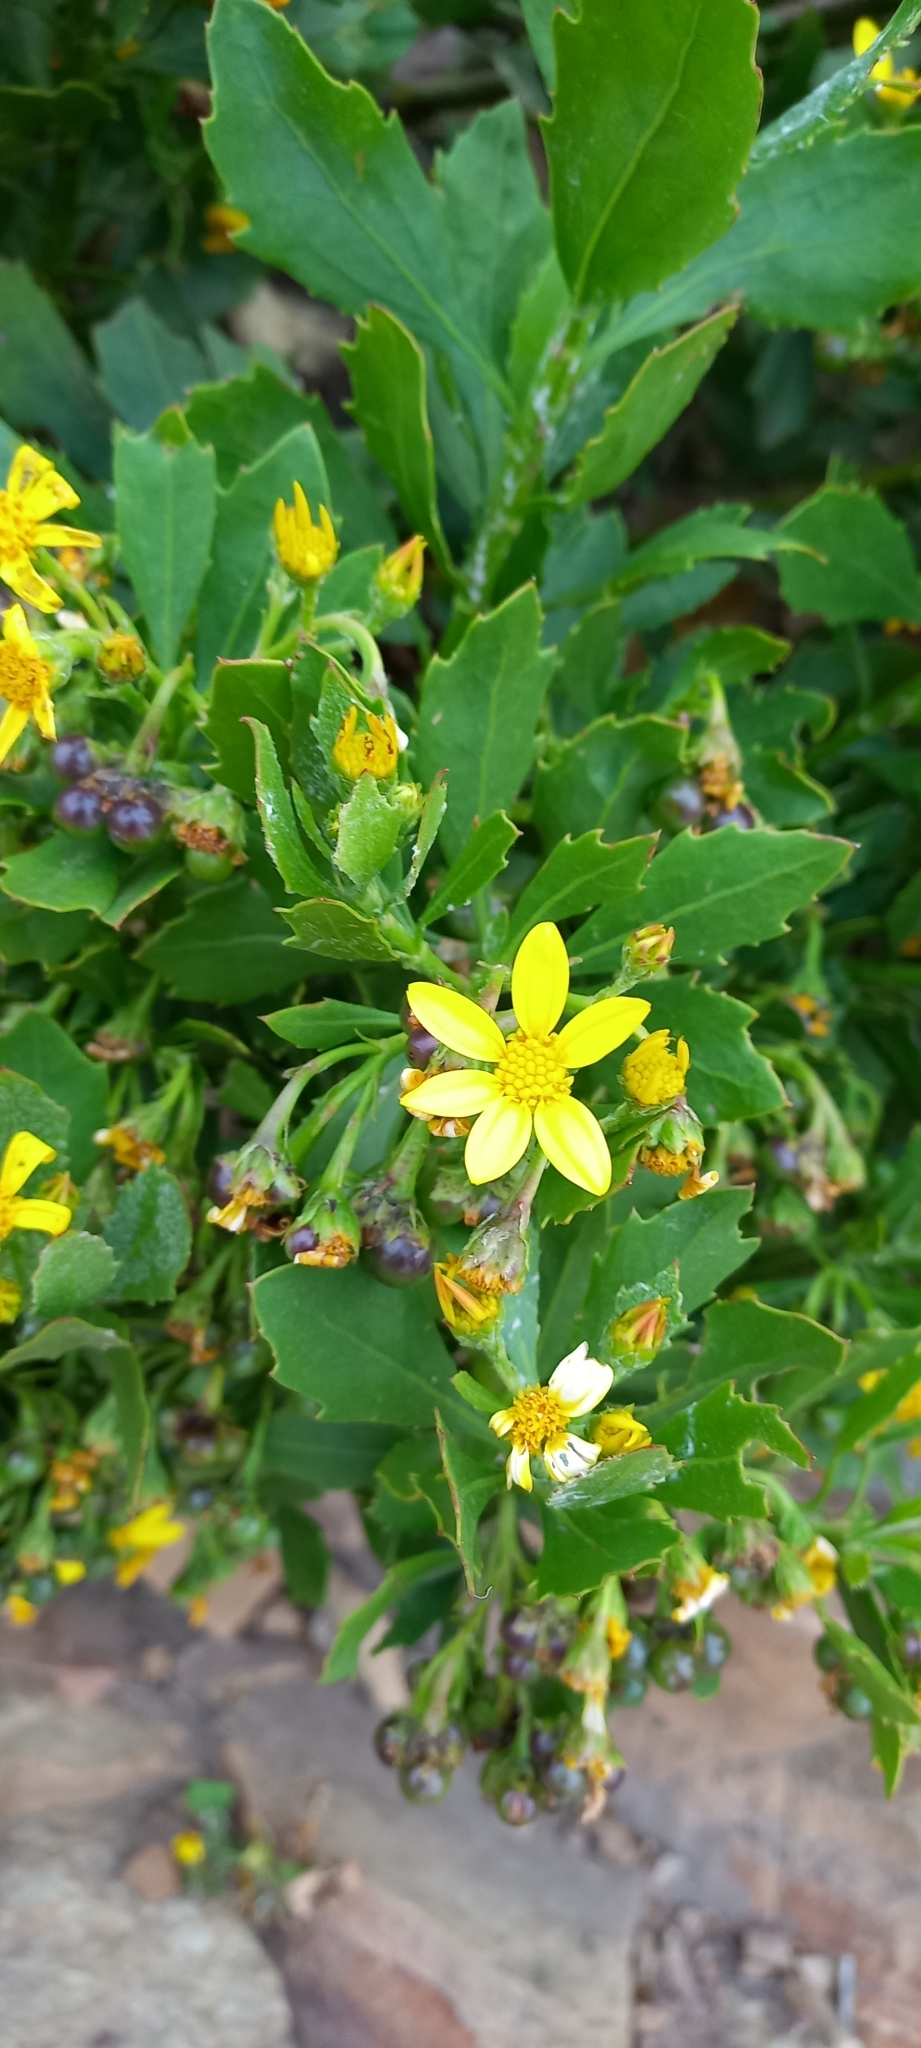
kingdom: Plantae
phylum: Tracheophyta
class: Magnoliopsida
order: Asterales
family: Asteraceae
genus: Osteospermum
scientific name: Osteospermum moniliferum
